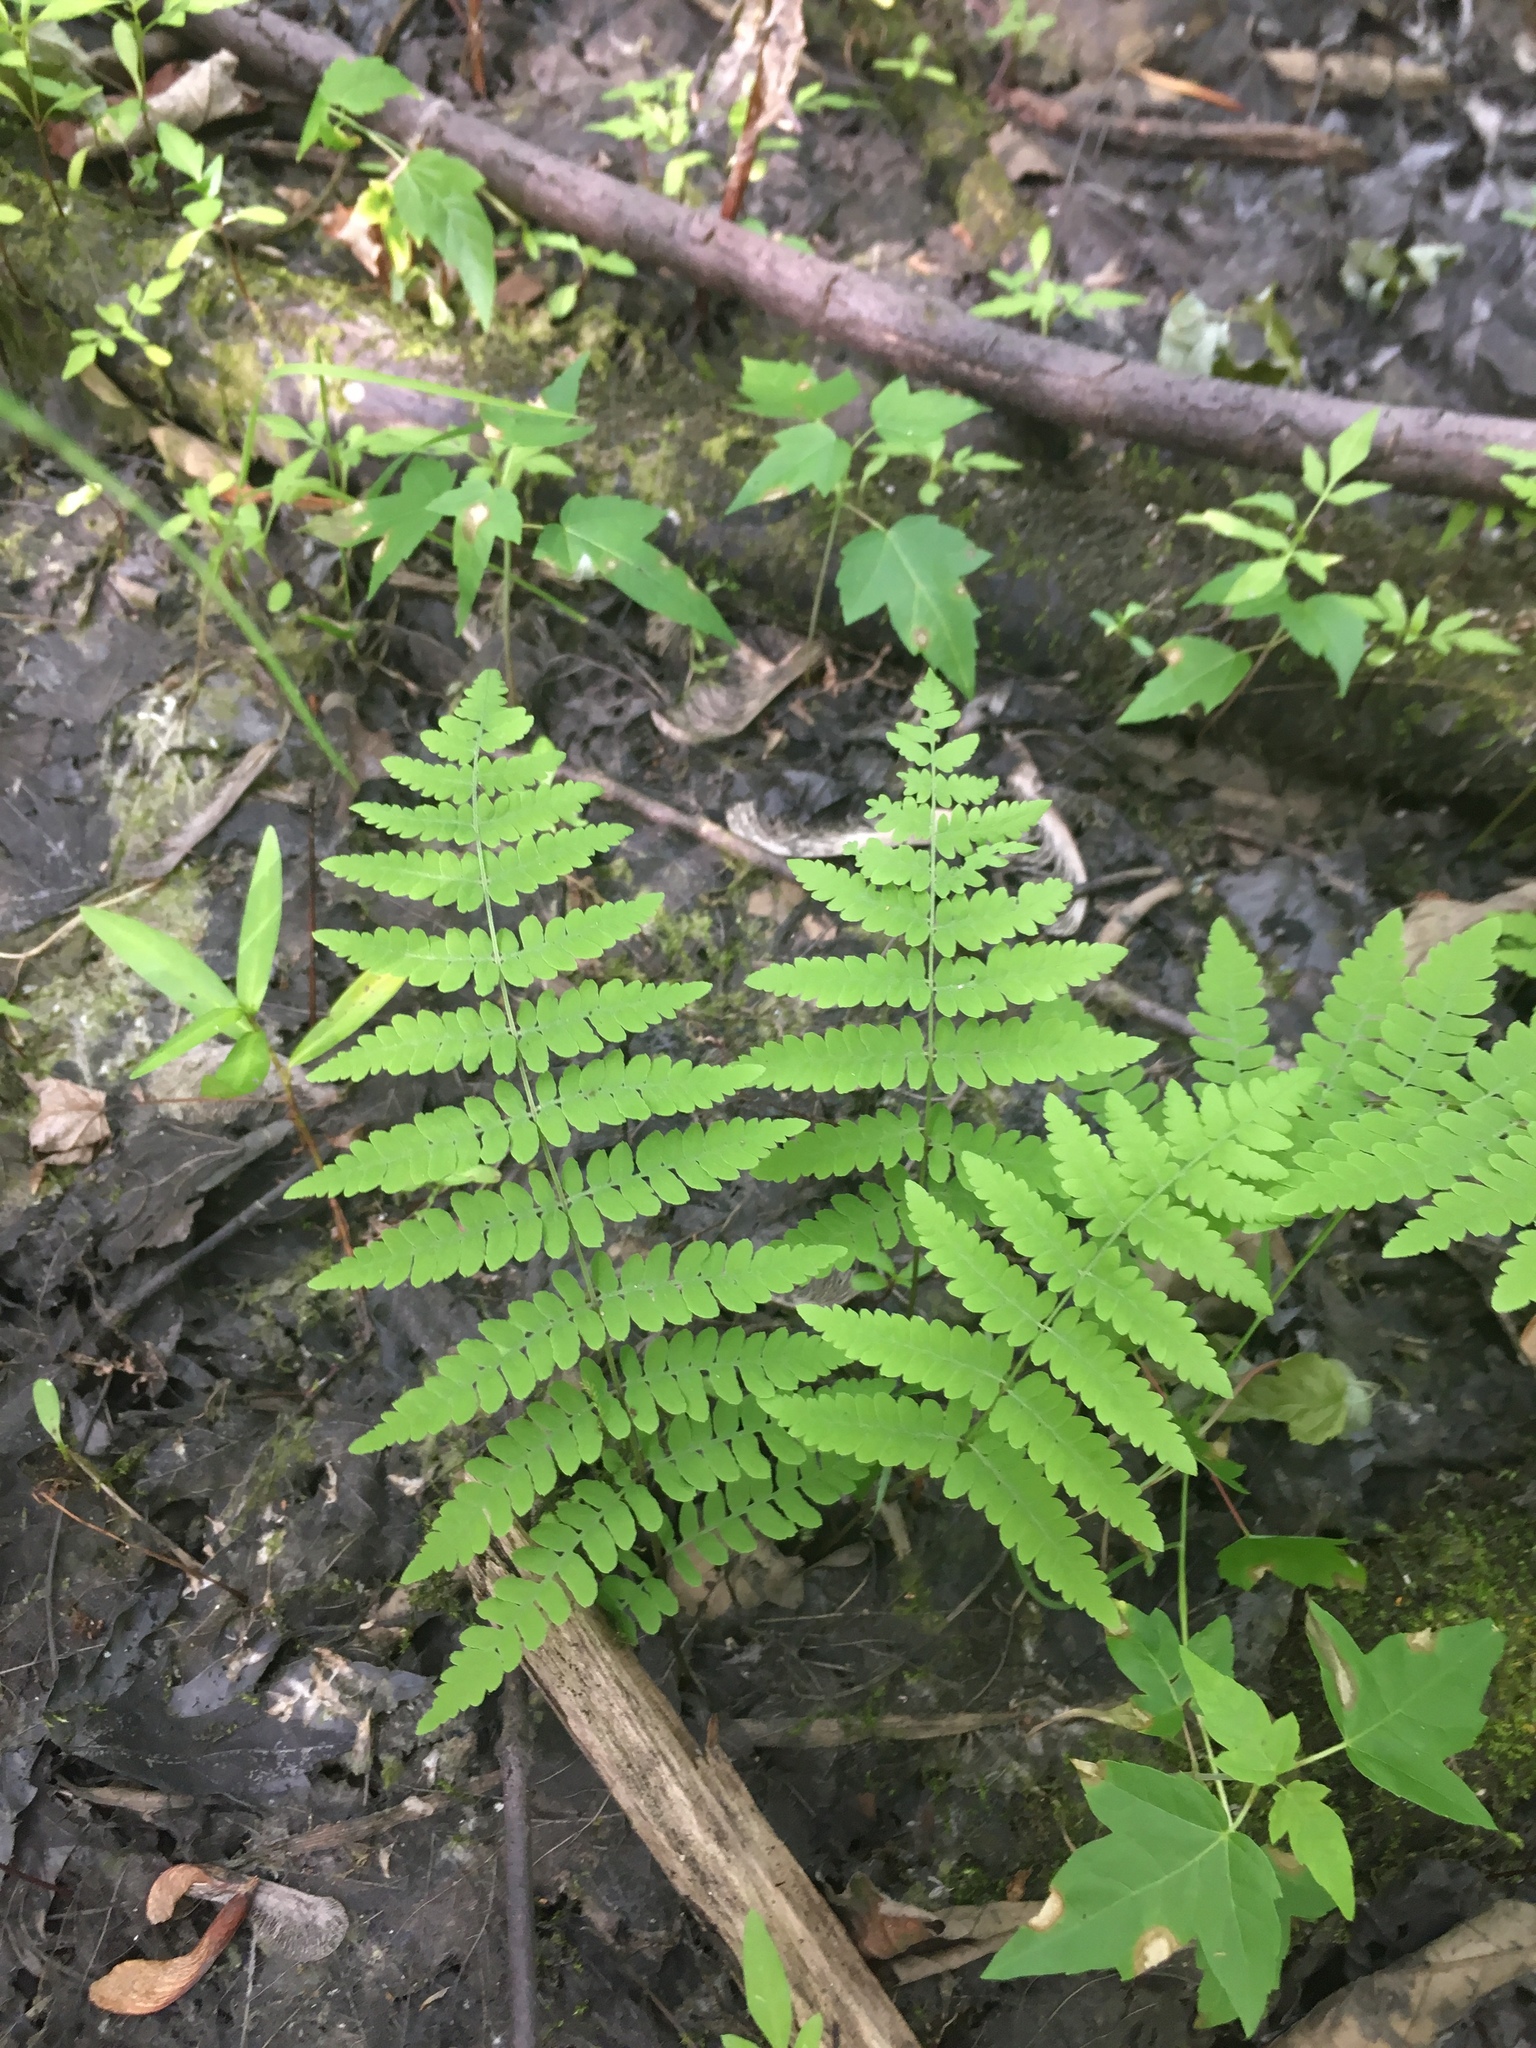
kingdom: Plantae
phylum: Tracheophyta
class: Polypodiopsida
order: Polypodiales
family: Thelypteridaceae
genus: Thelypteris
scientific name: Thelypteris palustris
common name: Marsh fern
